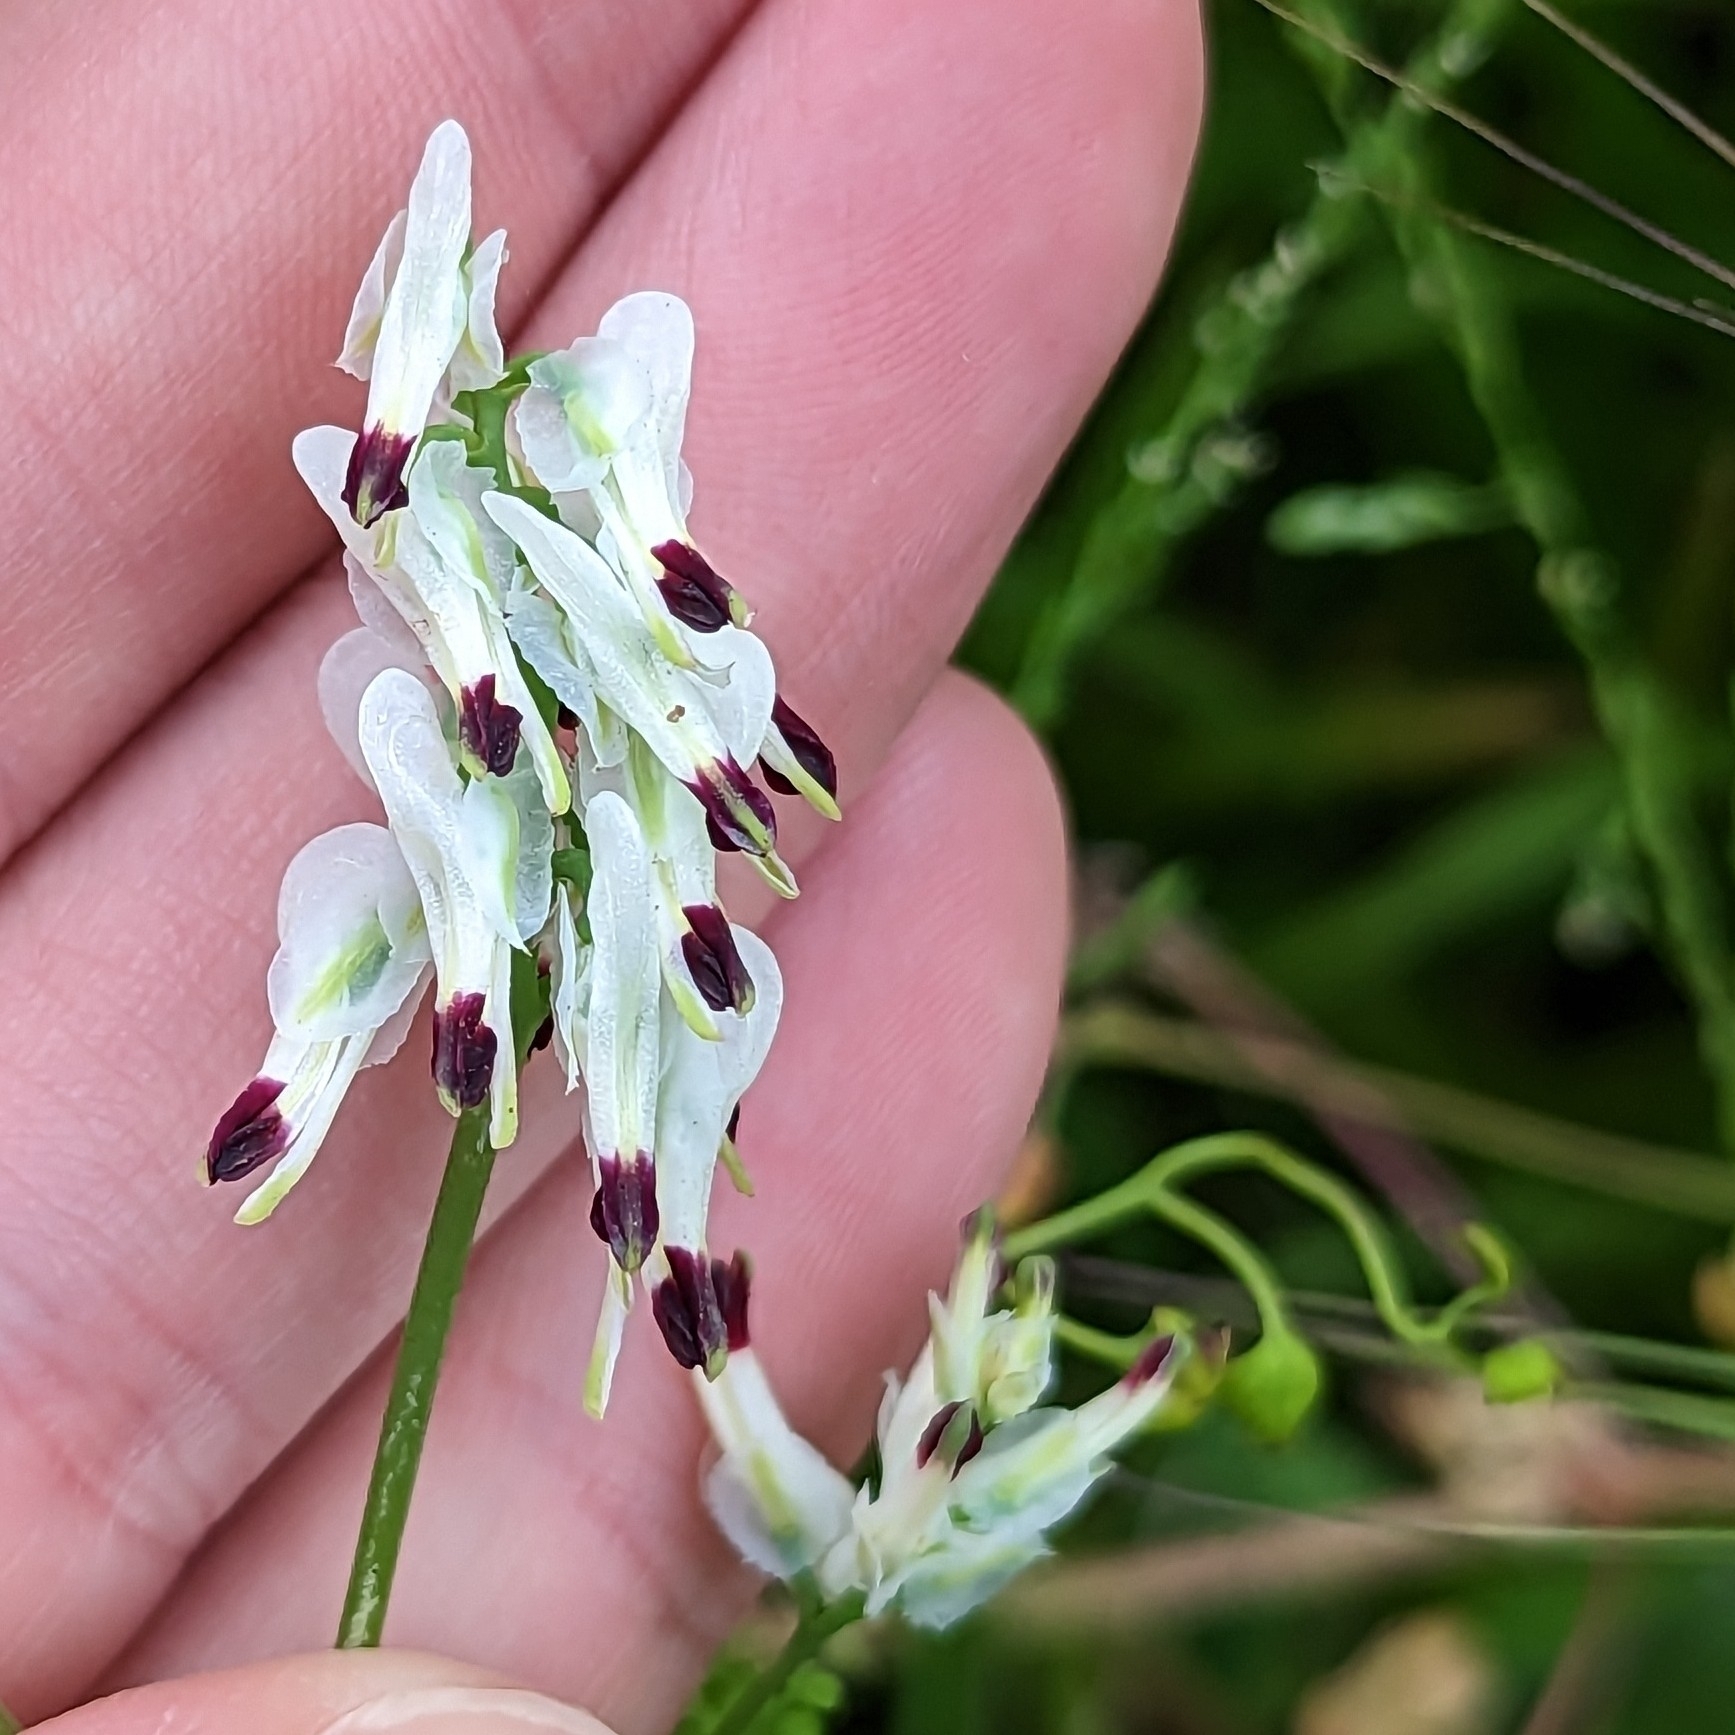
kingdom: Plantae
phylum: Tracheophyta
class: Magnoliopsida
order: Ranunculales
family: Papaveraceae
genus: Fumaria
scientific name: Fumaria capreolata
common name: White ramping-fumitory
